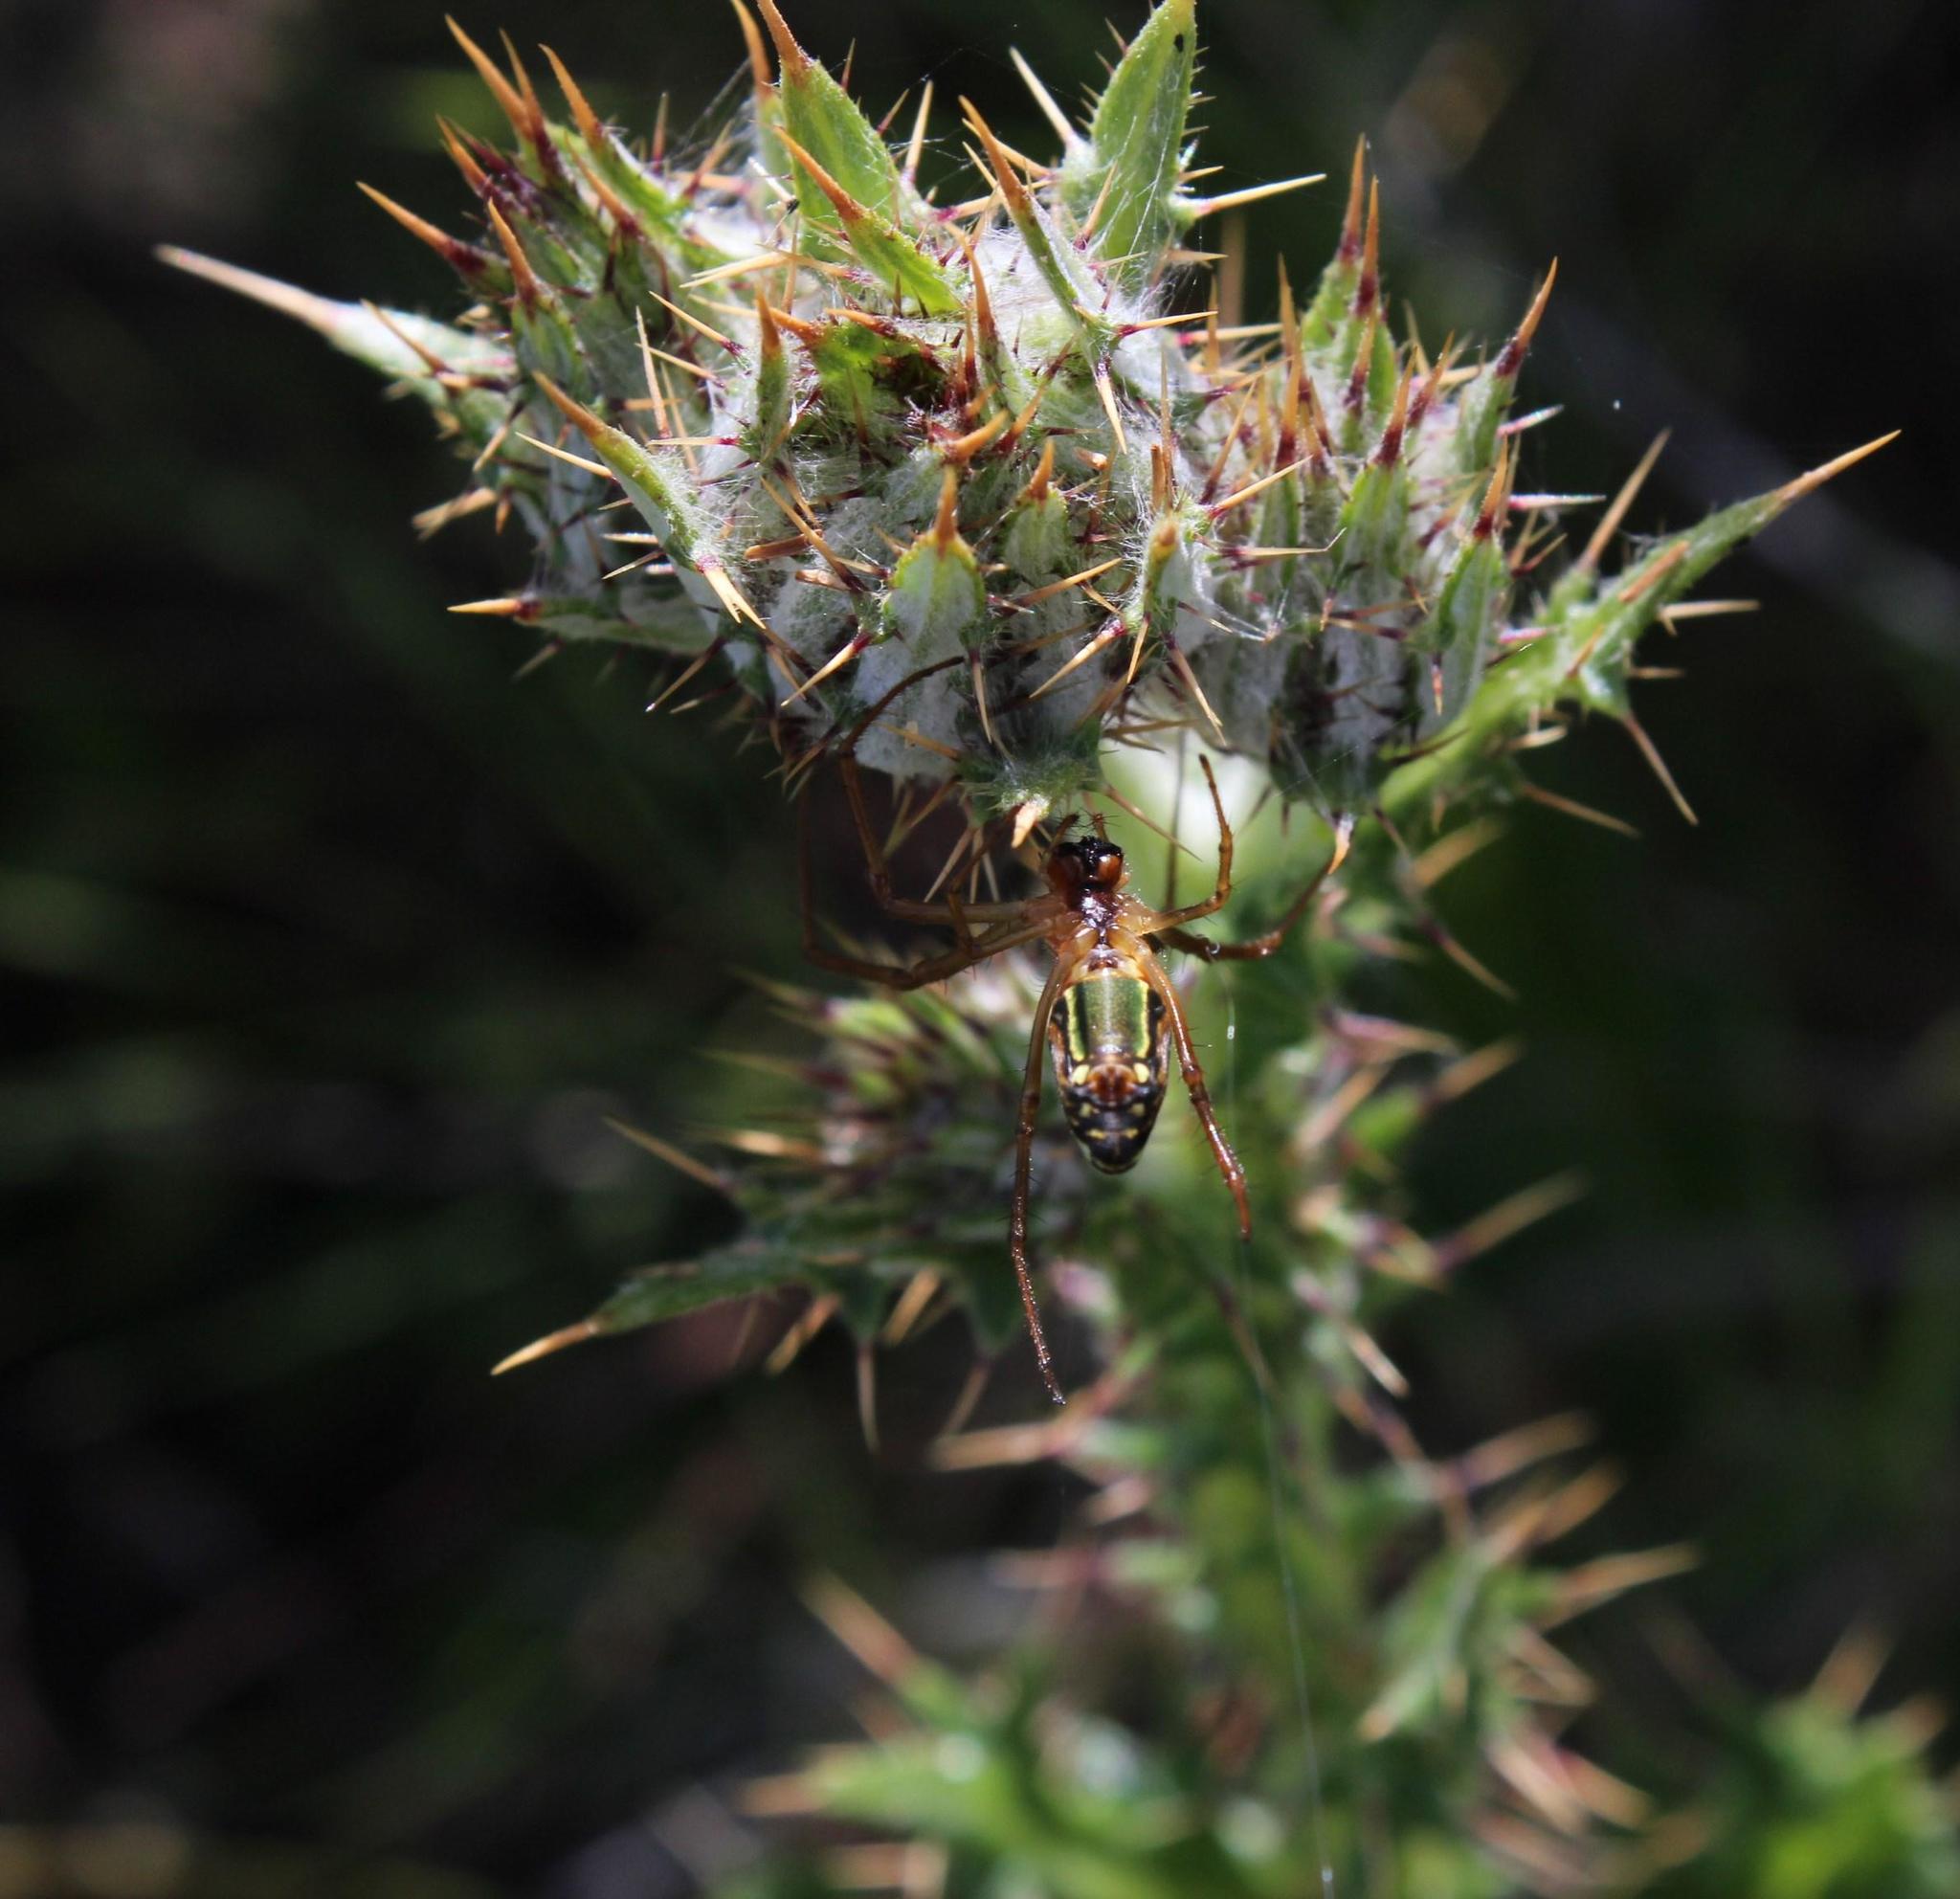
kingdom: Plantae
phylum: Tracheophyta
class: Magnoliopsida
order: Asterales
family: Asteraceae
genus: Cirsium
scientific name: Cirsium vulgare
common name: Bull thistle
